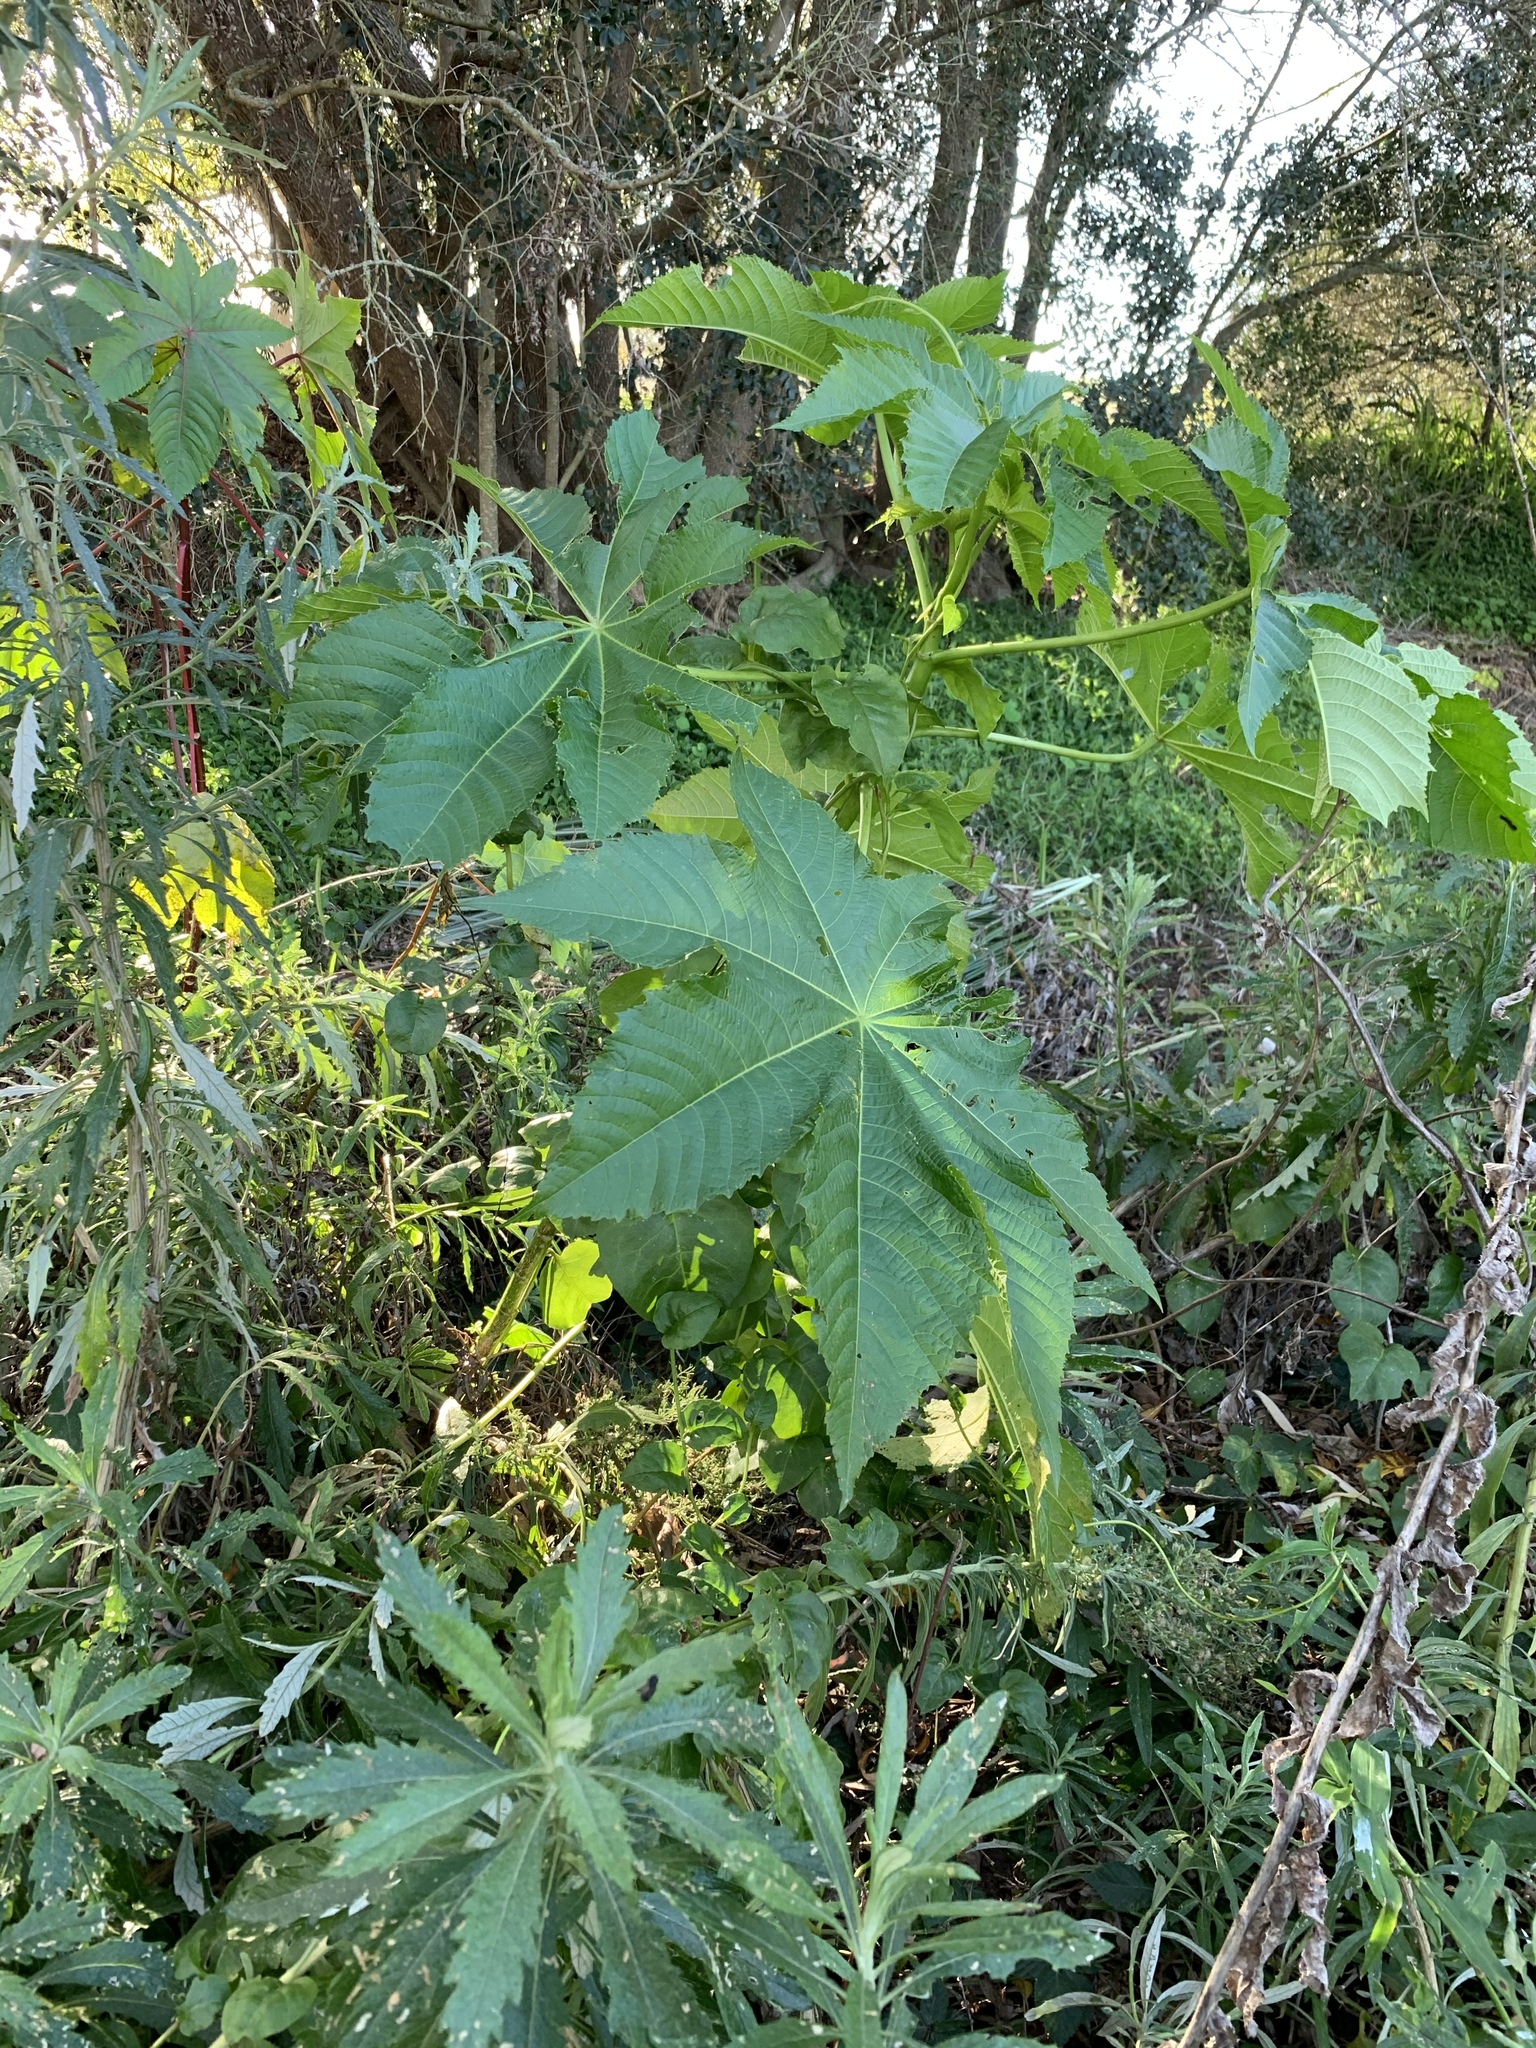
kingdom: Plantae
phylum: Tracheophyta
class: Magnoliopsida
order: Malpighiales
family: Euphorbiaceae
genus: Ricinus
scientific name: Ricinus communis
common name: Castor-oil-plant
